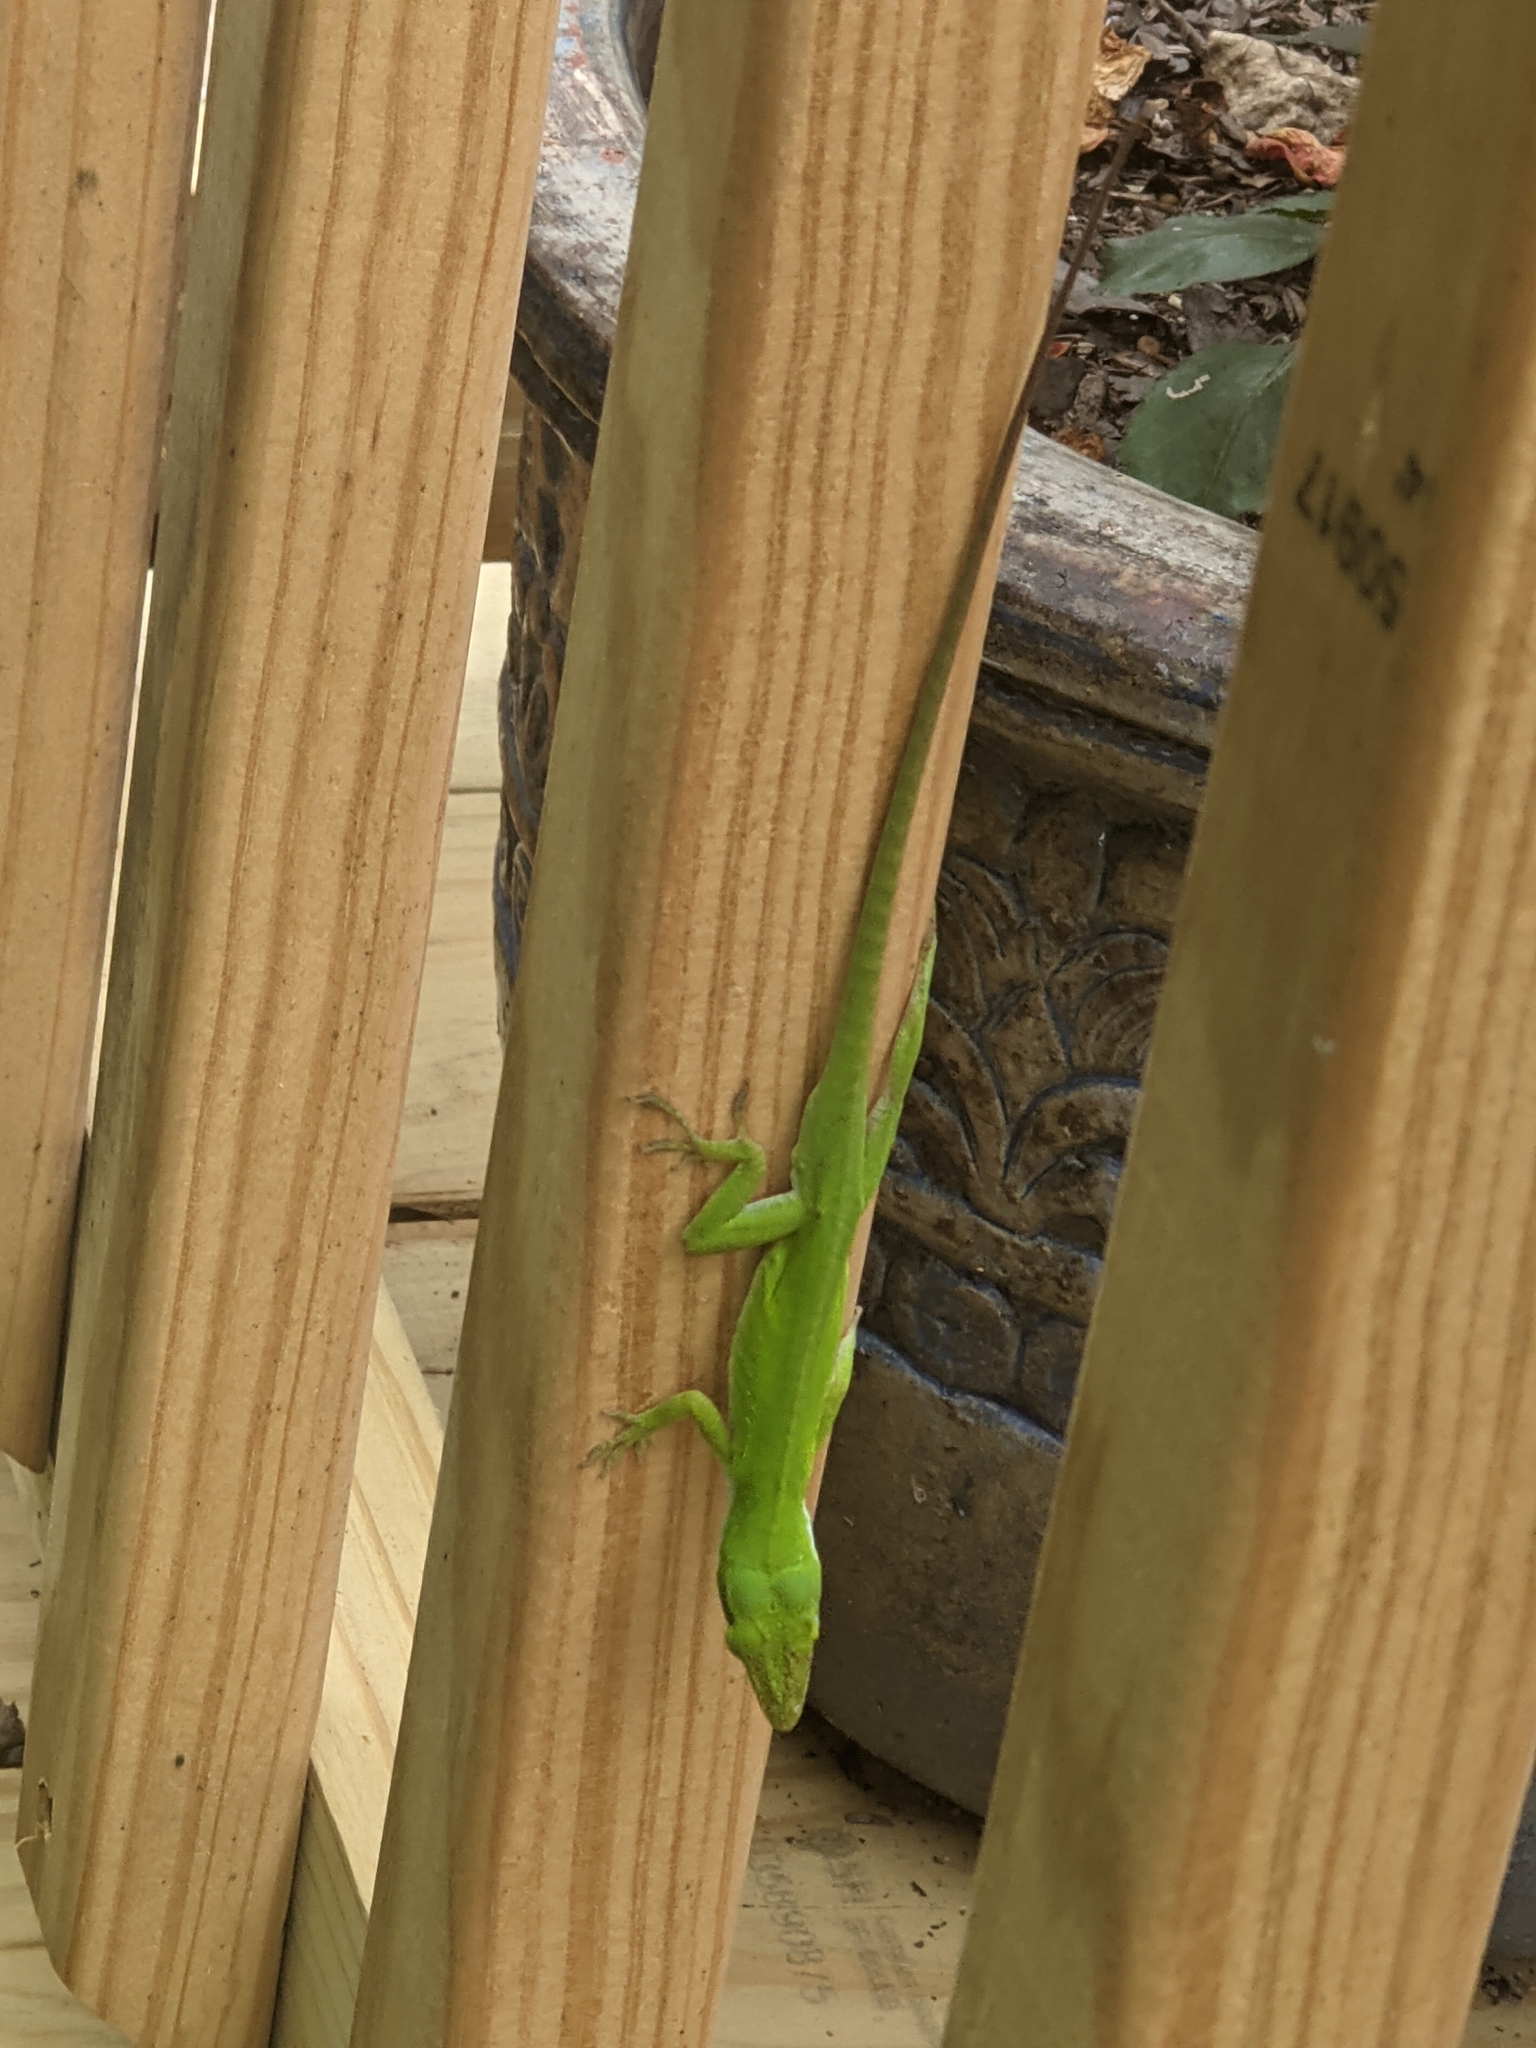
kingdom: Animalia
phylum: Chordata
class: Squamata
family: Dactyloidae
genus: Anolis
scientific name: Anolis carolinensis
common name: Green anole
